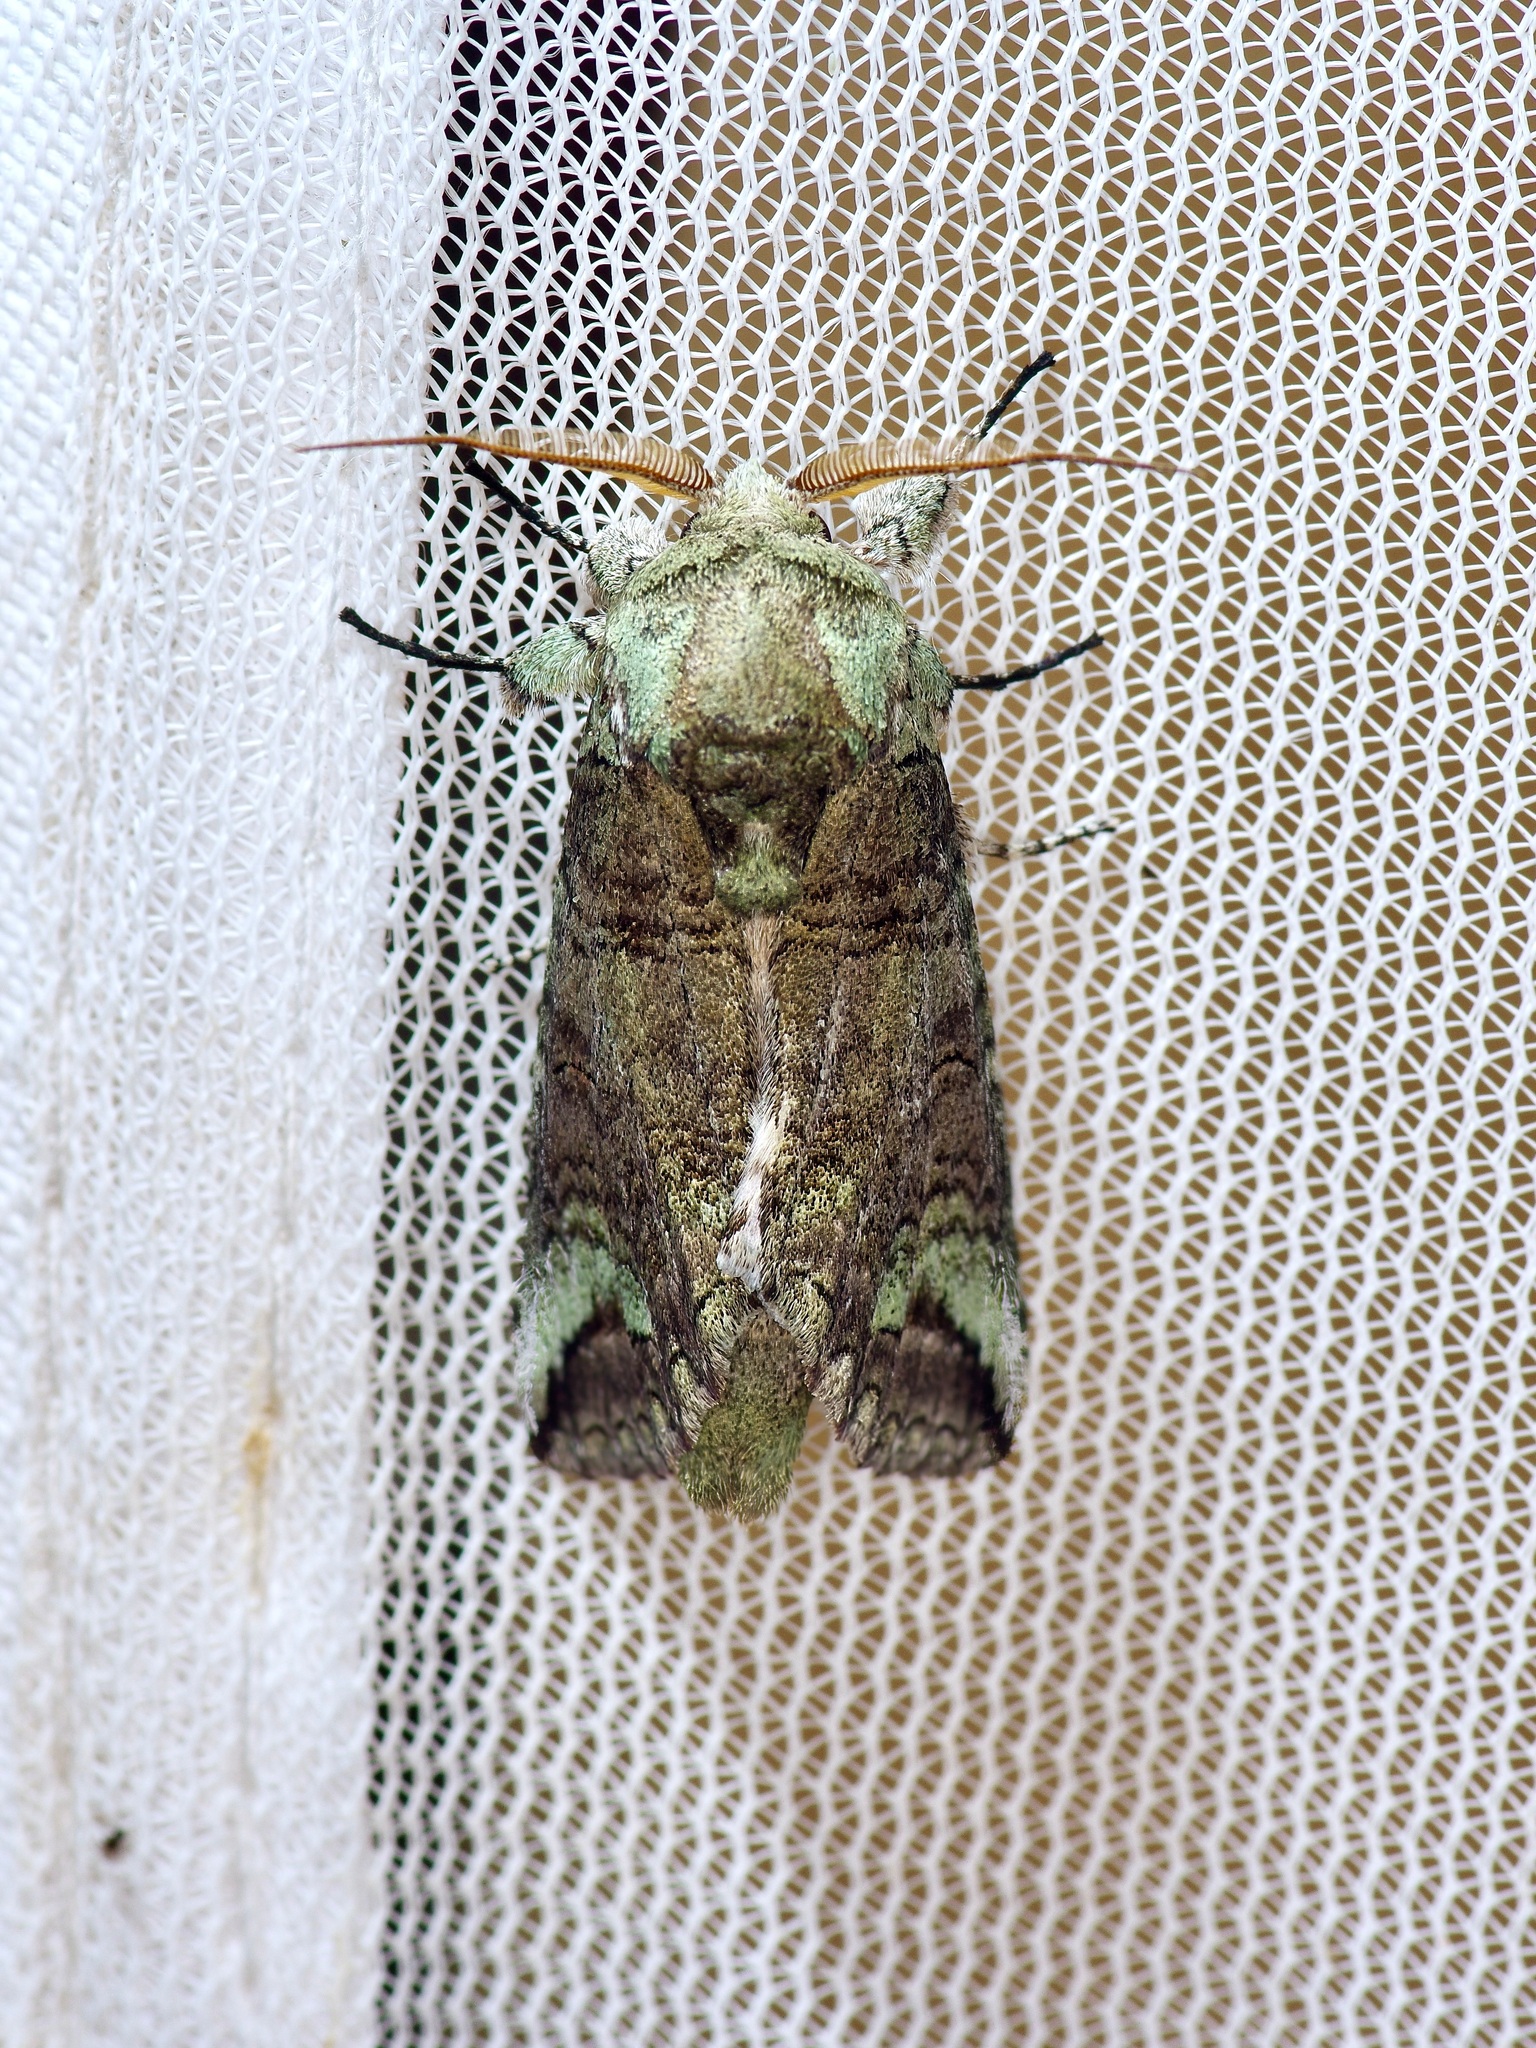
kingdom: Animalia
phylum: Arthropoda
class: Insecta
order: Lepidoptera
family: Notodontidae
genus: Heterocampa
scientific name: Heterocampa astartoides
